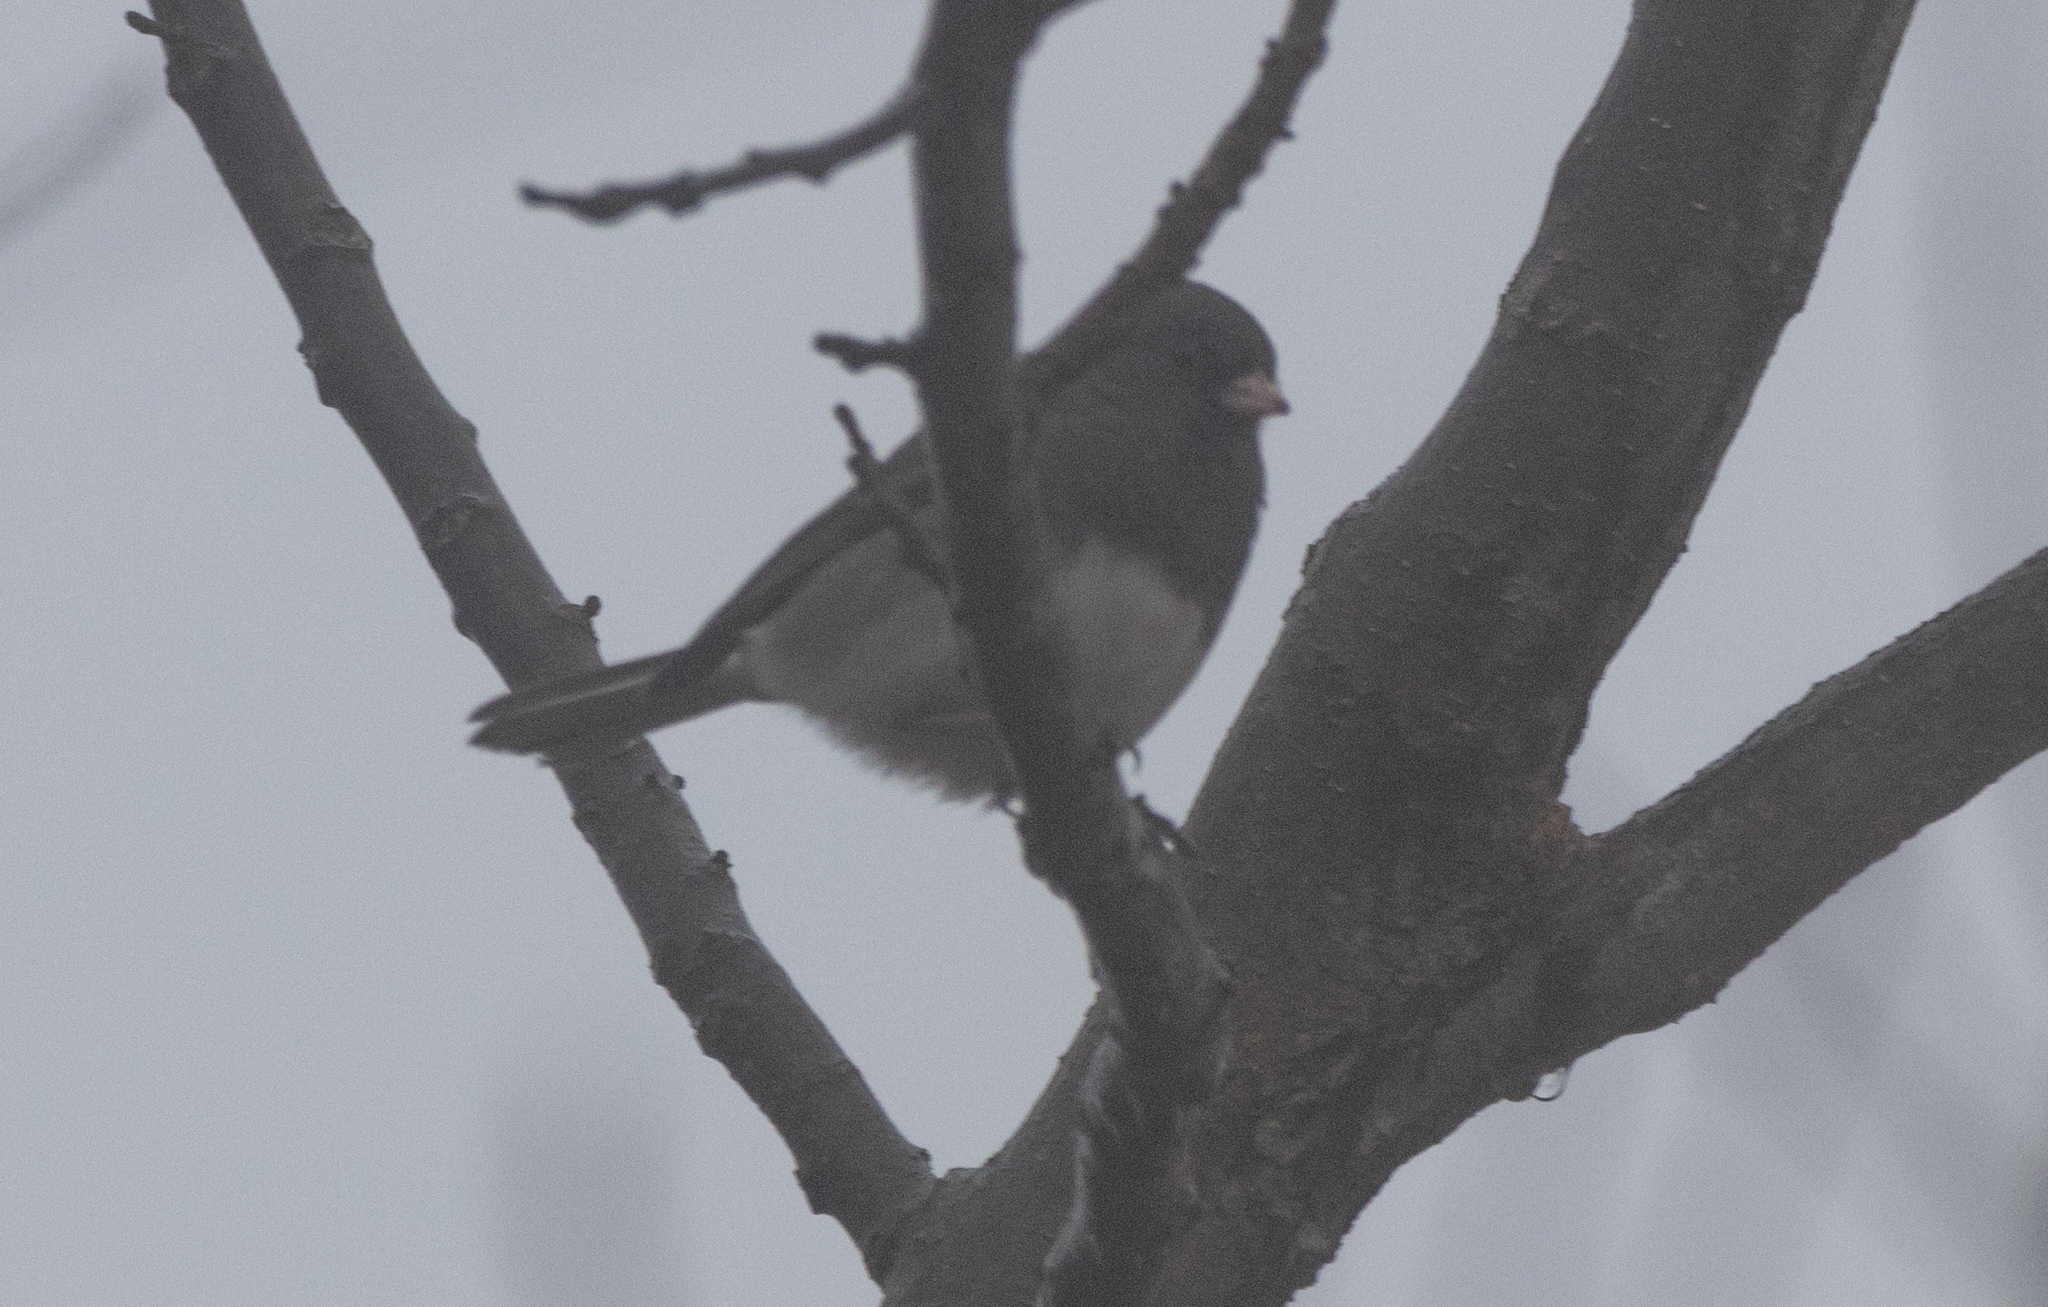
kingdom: Animalia
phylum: Chordata
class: Aves
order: Passeriformes
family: Passerellidae
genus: Junco
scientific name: Junco hyemalis
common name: Dark-eyed junco
